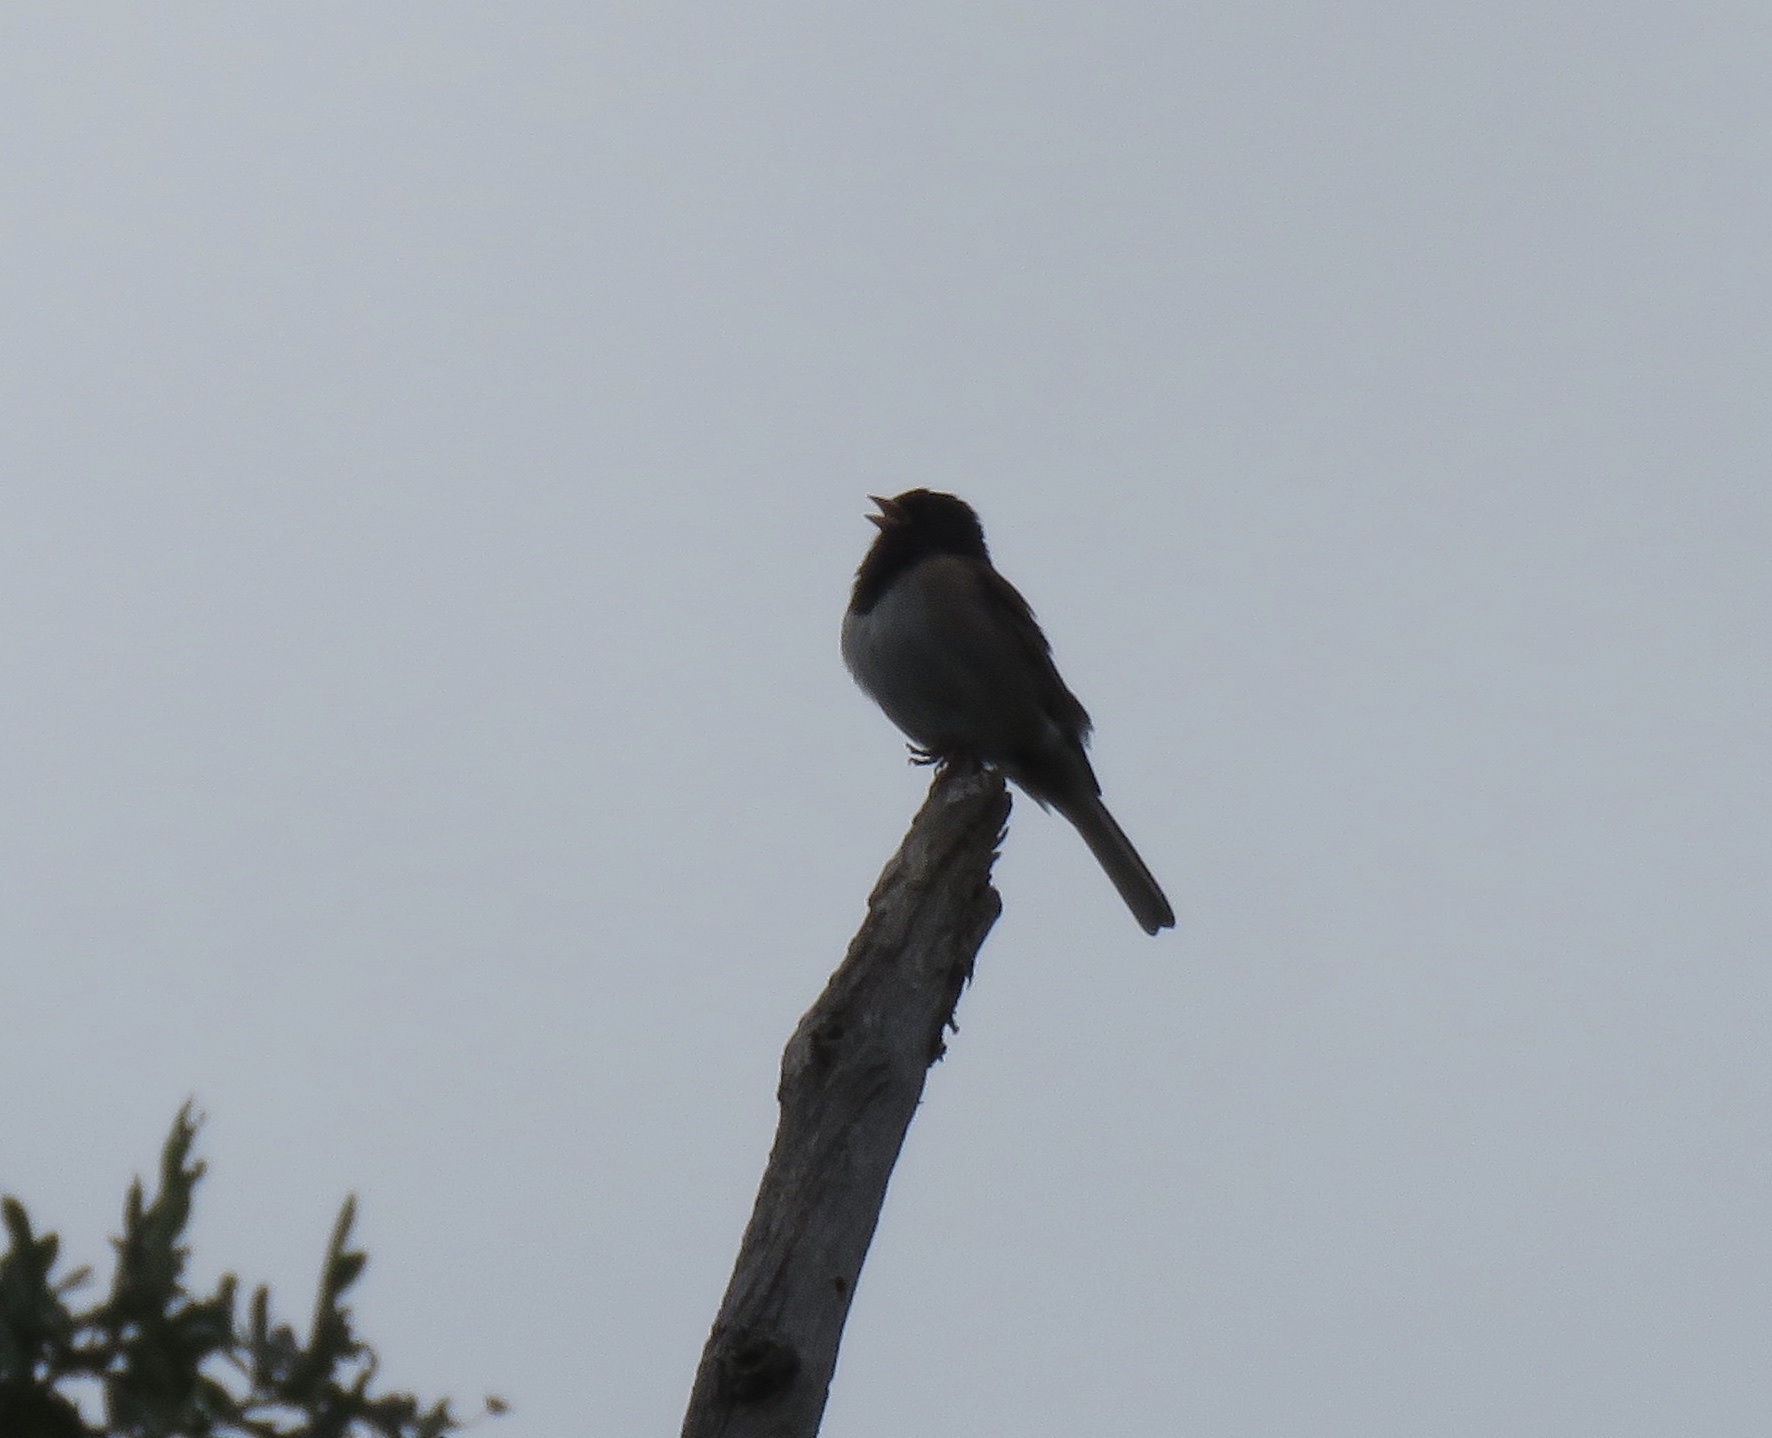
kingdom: Animalia
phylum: Chordata
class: Aves
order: Passeriformes
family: Passerellidae
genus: Junco
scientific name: Junco hyemalis
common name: Dark-eyed junco
